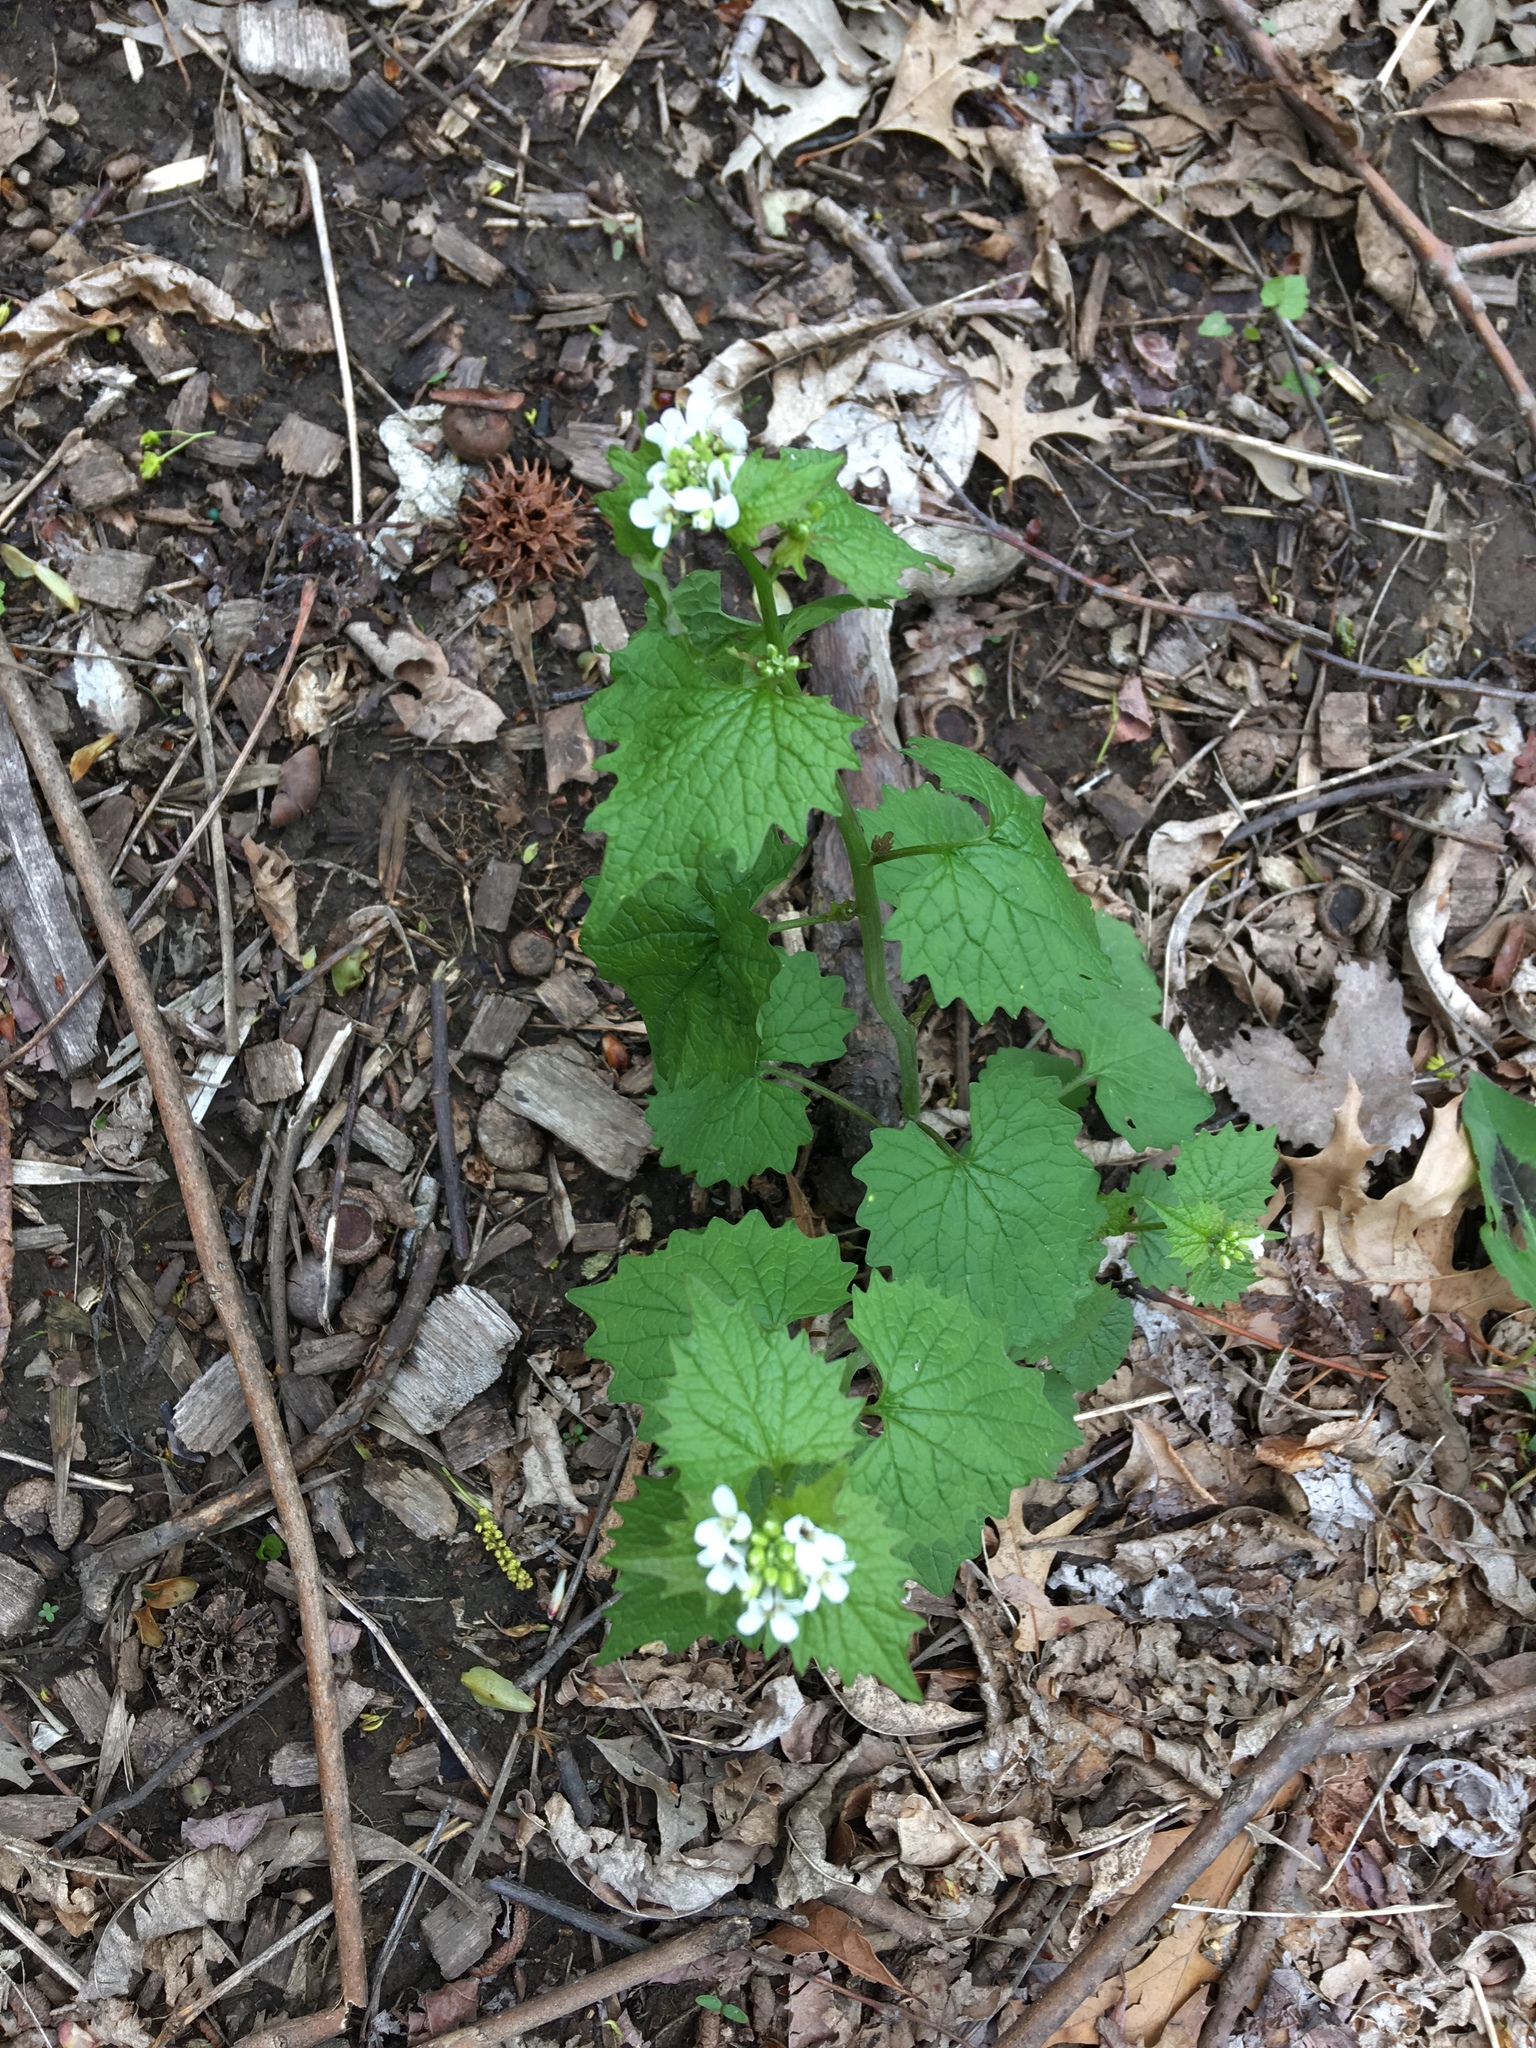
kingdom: Plantae
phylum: Tracheophyta
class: Magnoliopsida
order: Brassicales
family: Brassicaceae
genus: Alliaria
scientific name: Alliaria petiolata
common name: Garlic mustard
